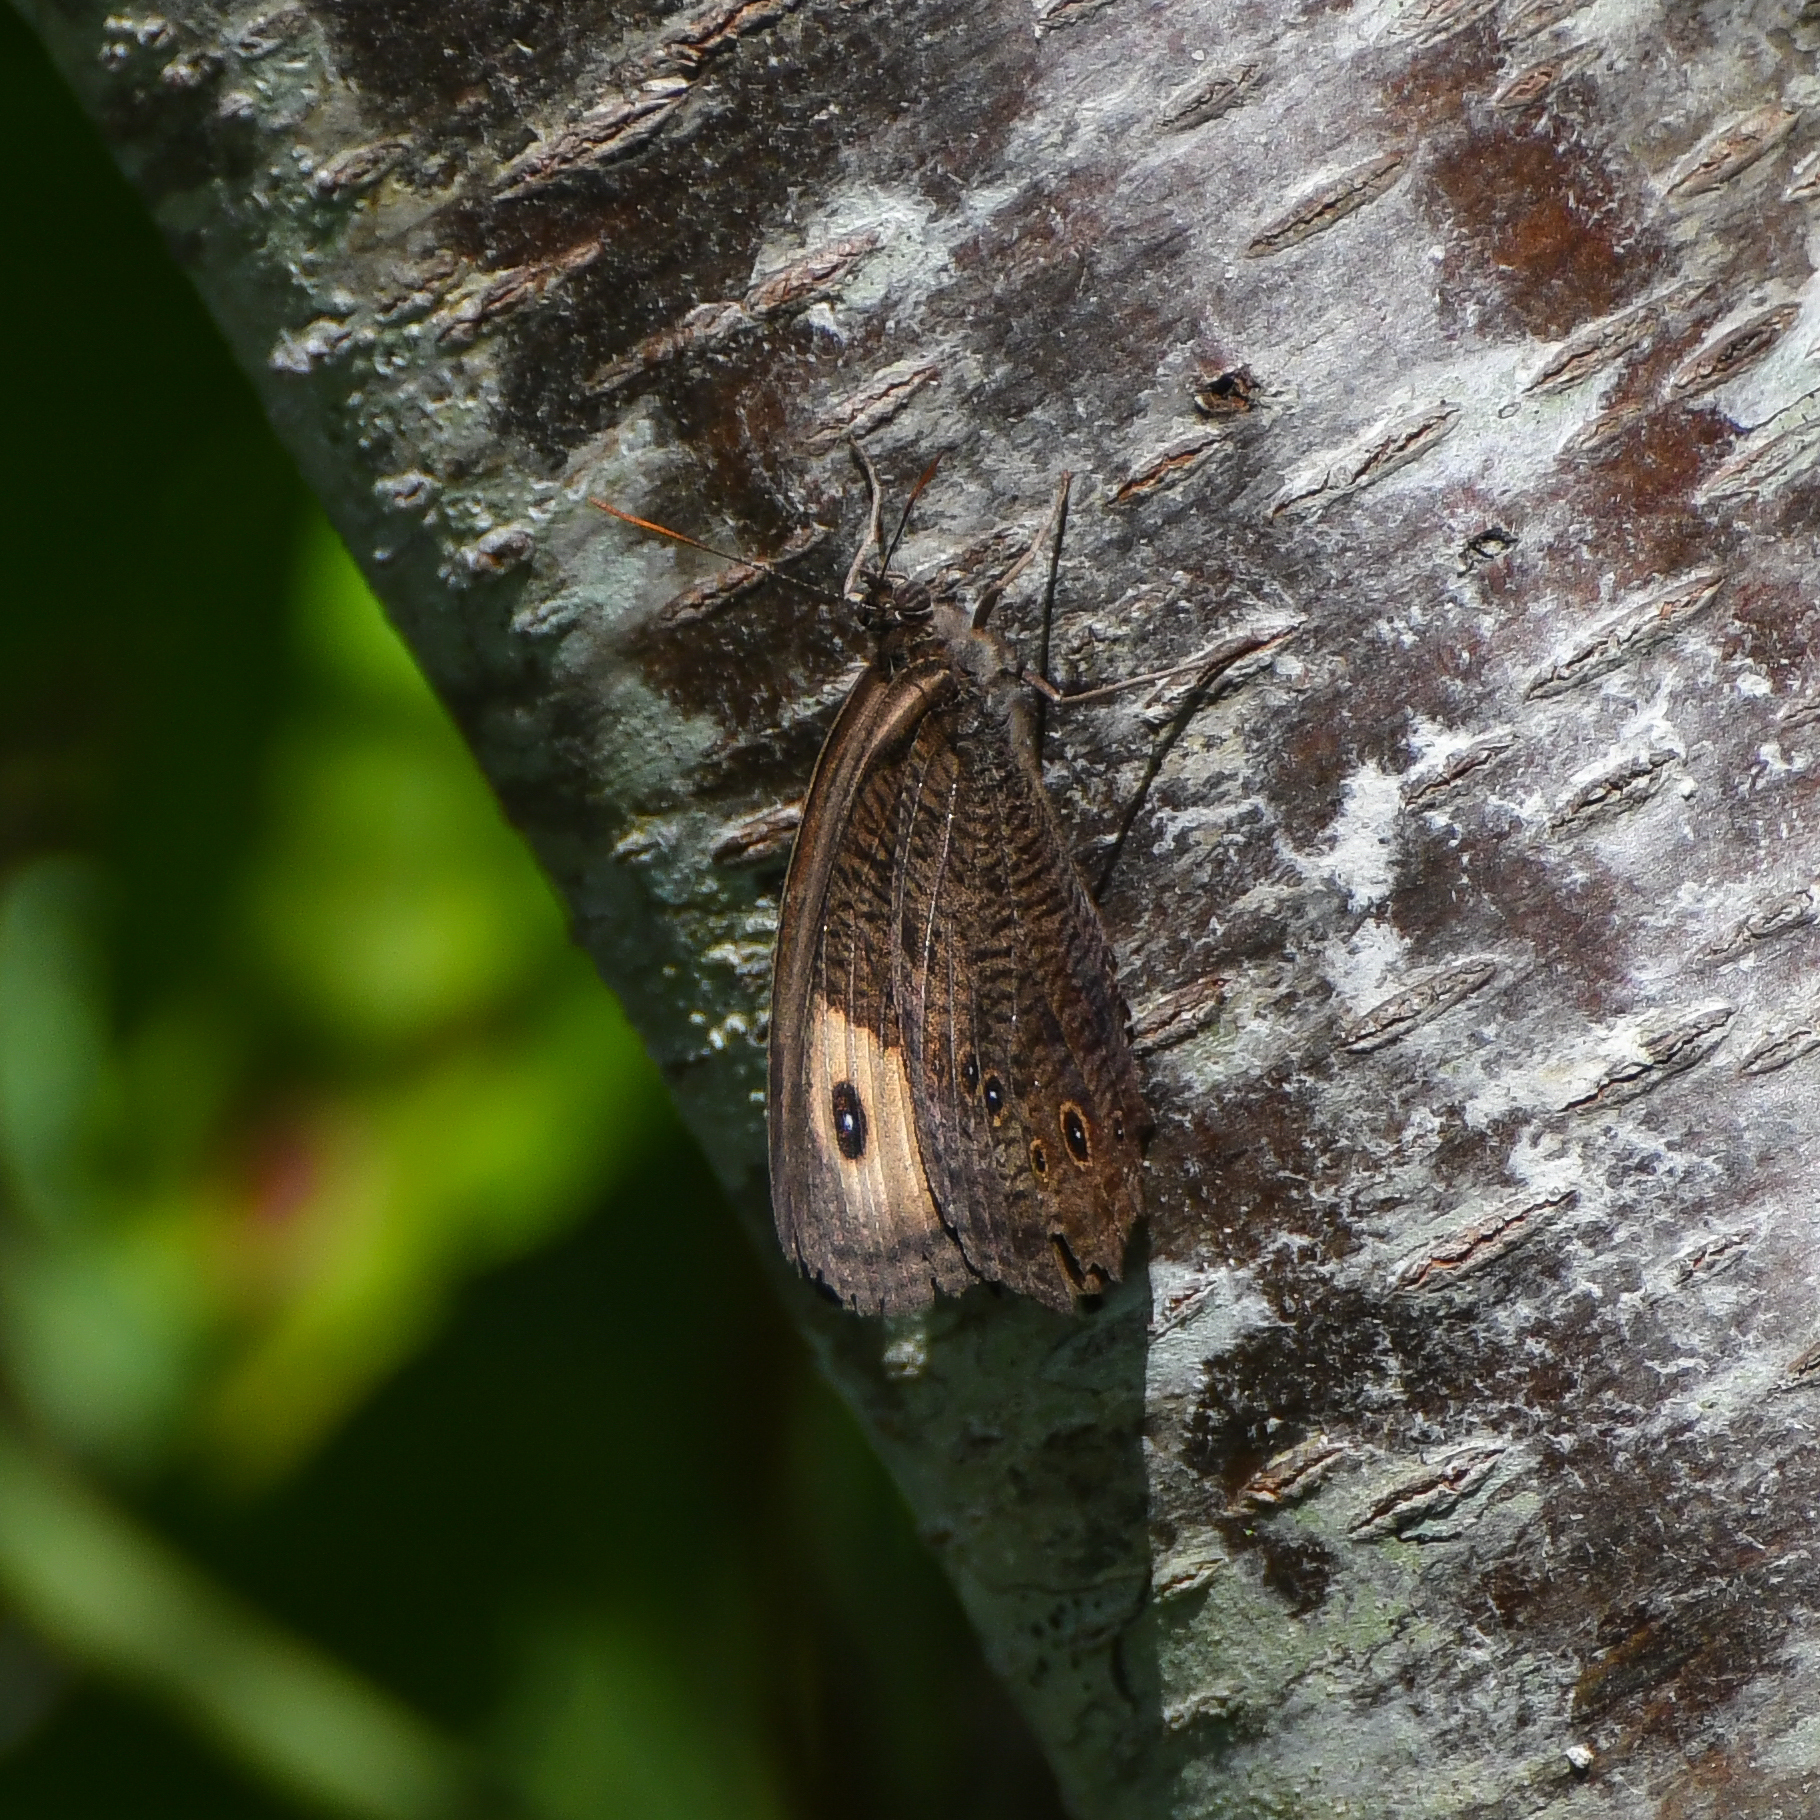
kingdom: Animalia
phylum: Arthropoda
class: Insecta
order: Lepidoptera
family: Nymphalidae
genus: Cercyonis
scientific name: Cercyonis pegala
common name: Common wood-nymph
